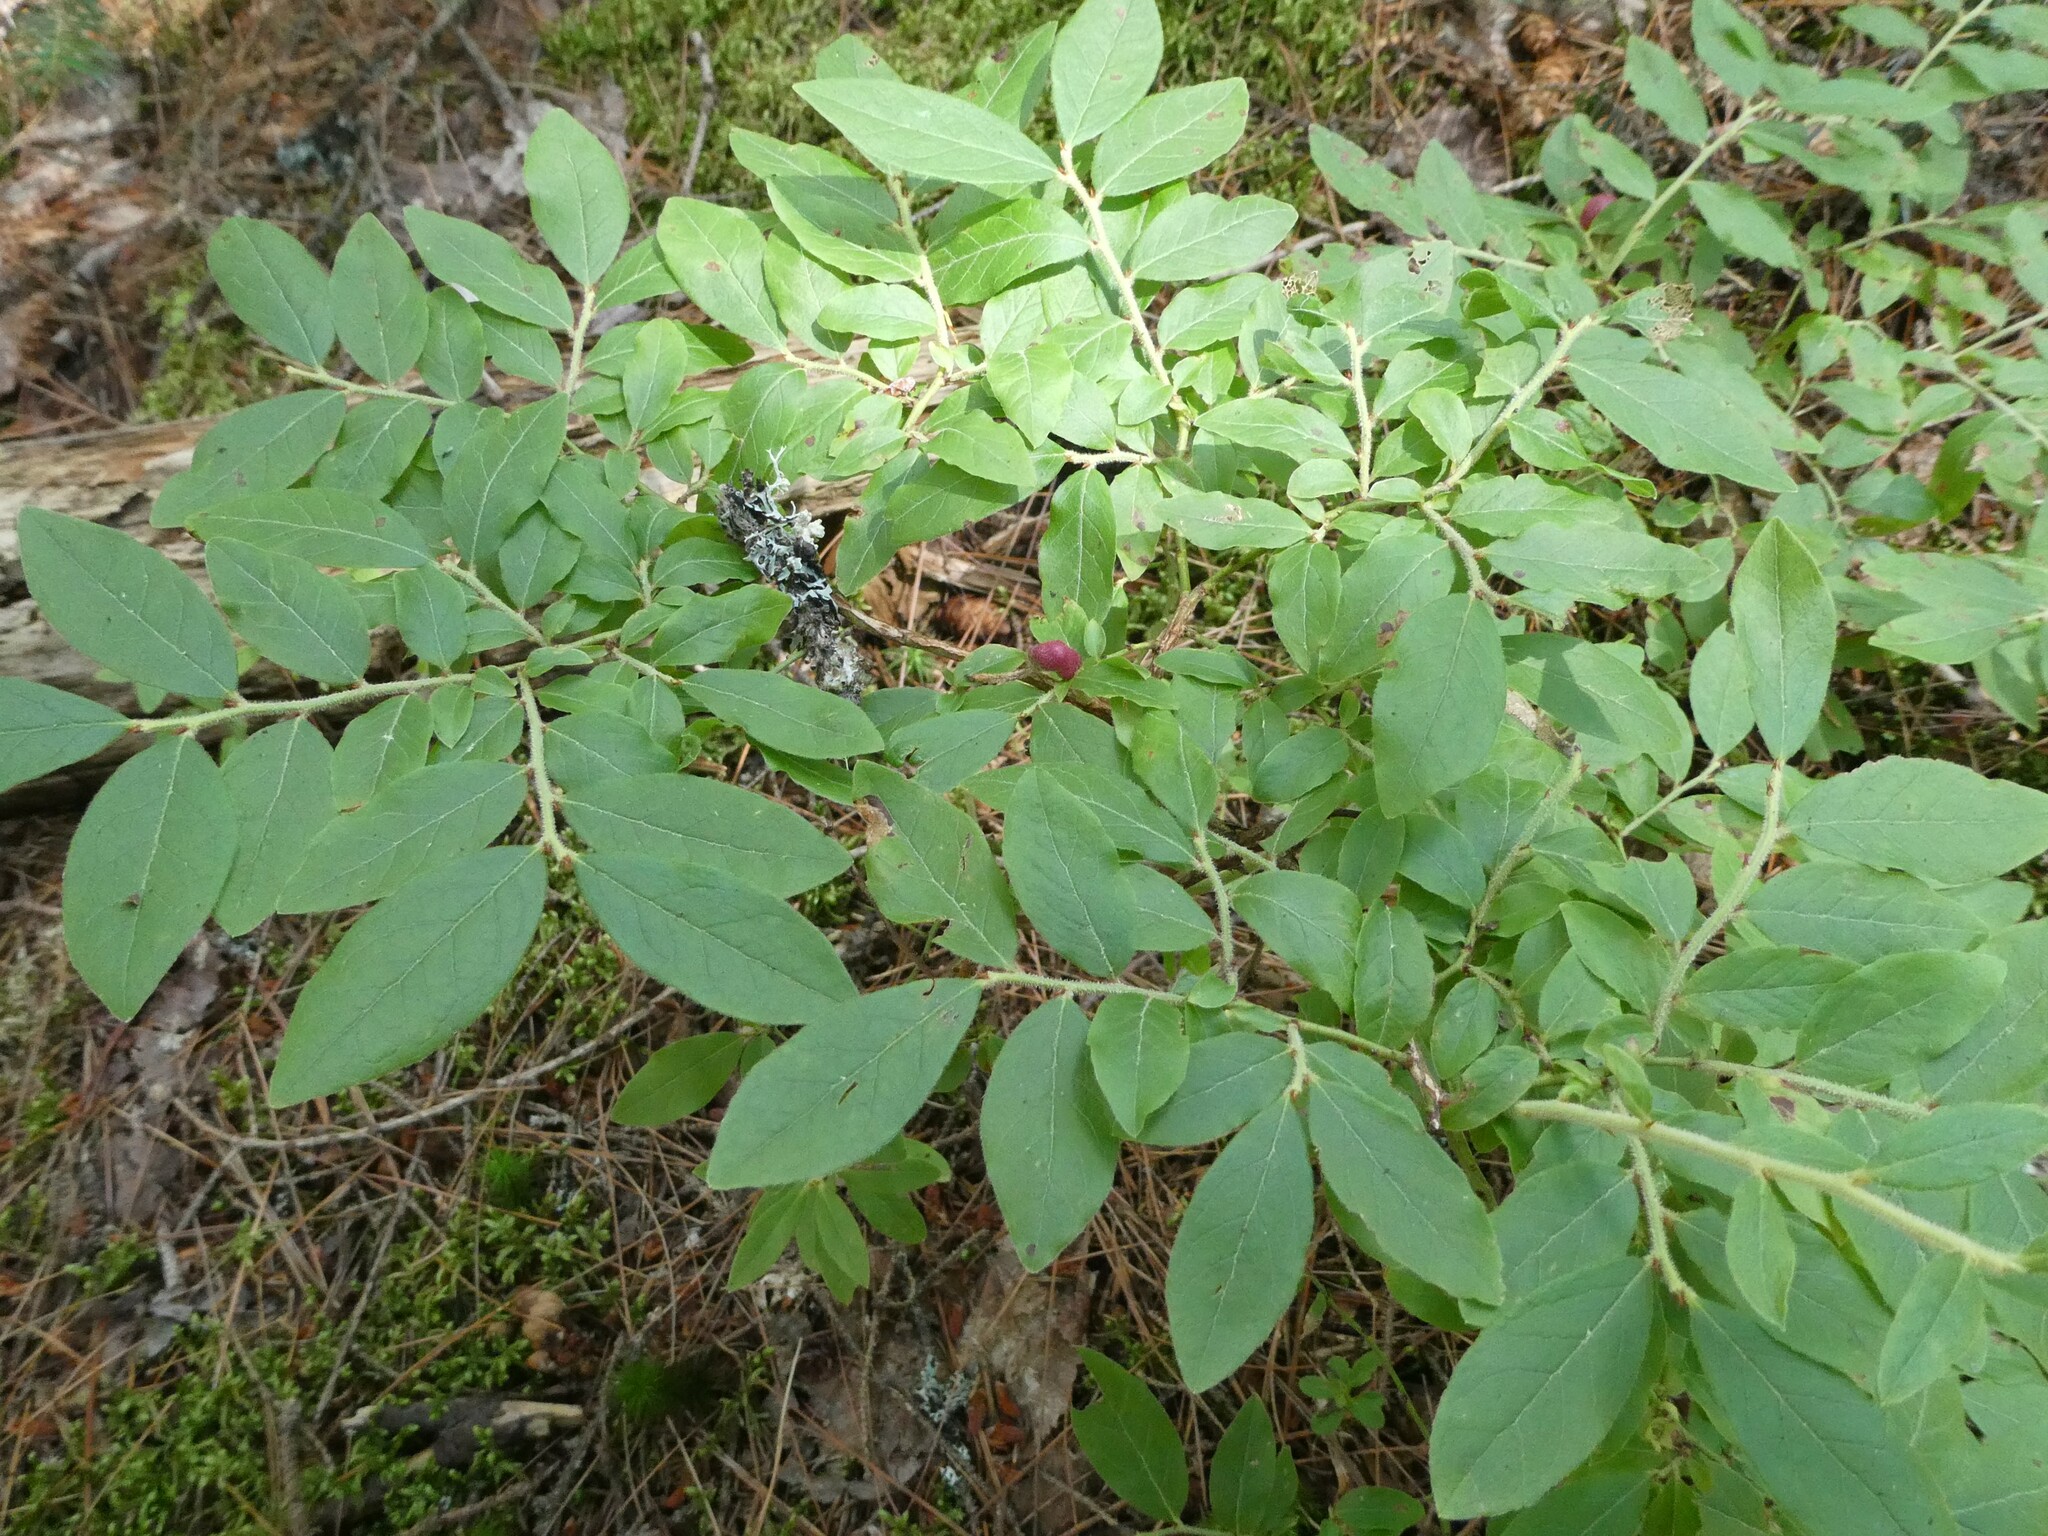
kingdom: Animalia
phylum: Arthropoda
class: Insecta
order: Hymenoptera
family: Pteromalidae
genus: Hemadas
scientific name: Hemadas nubilipennis
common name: Blueberry stem gall wasp
